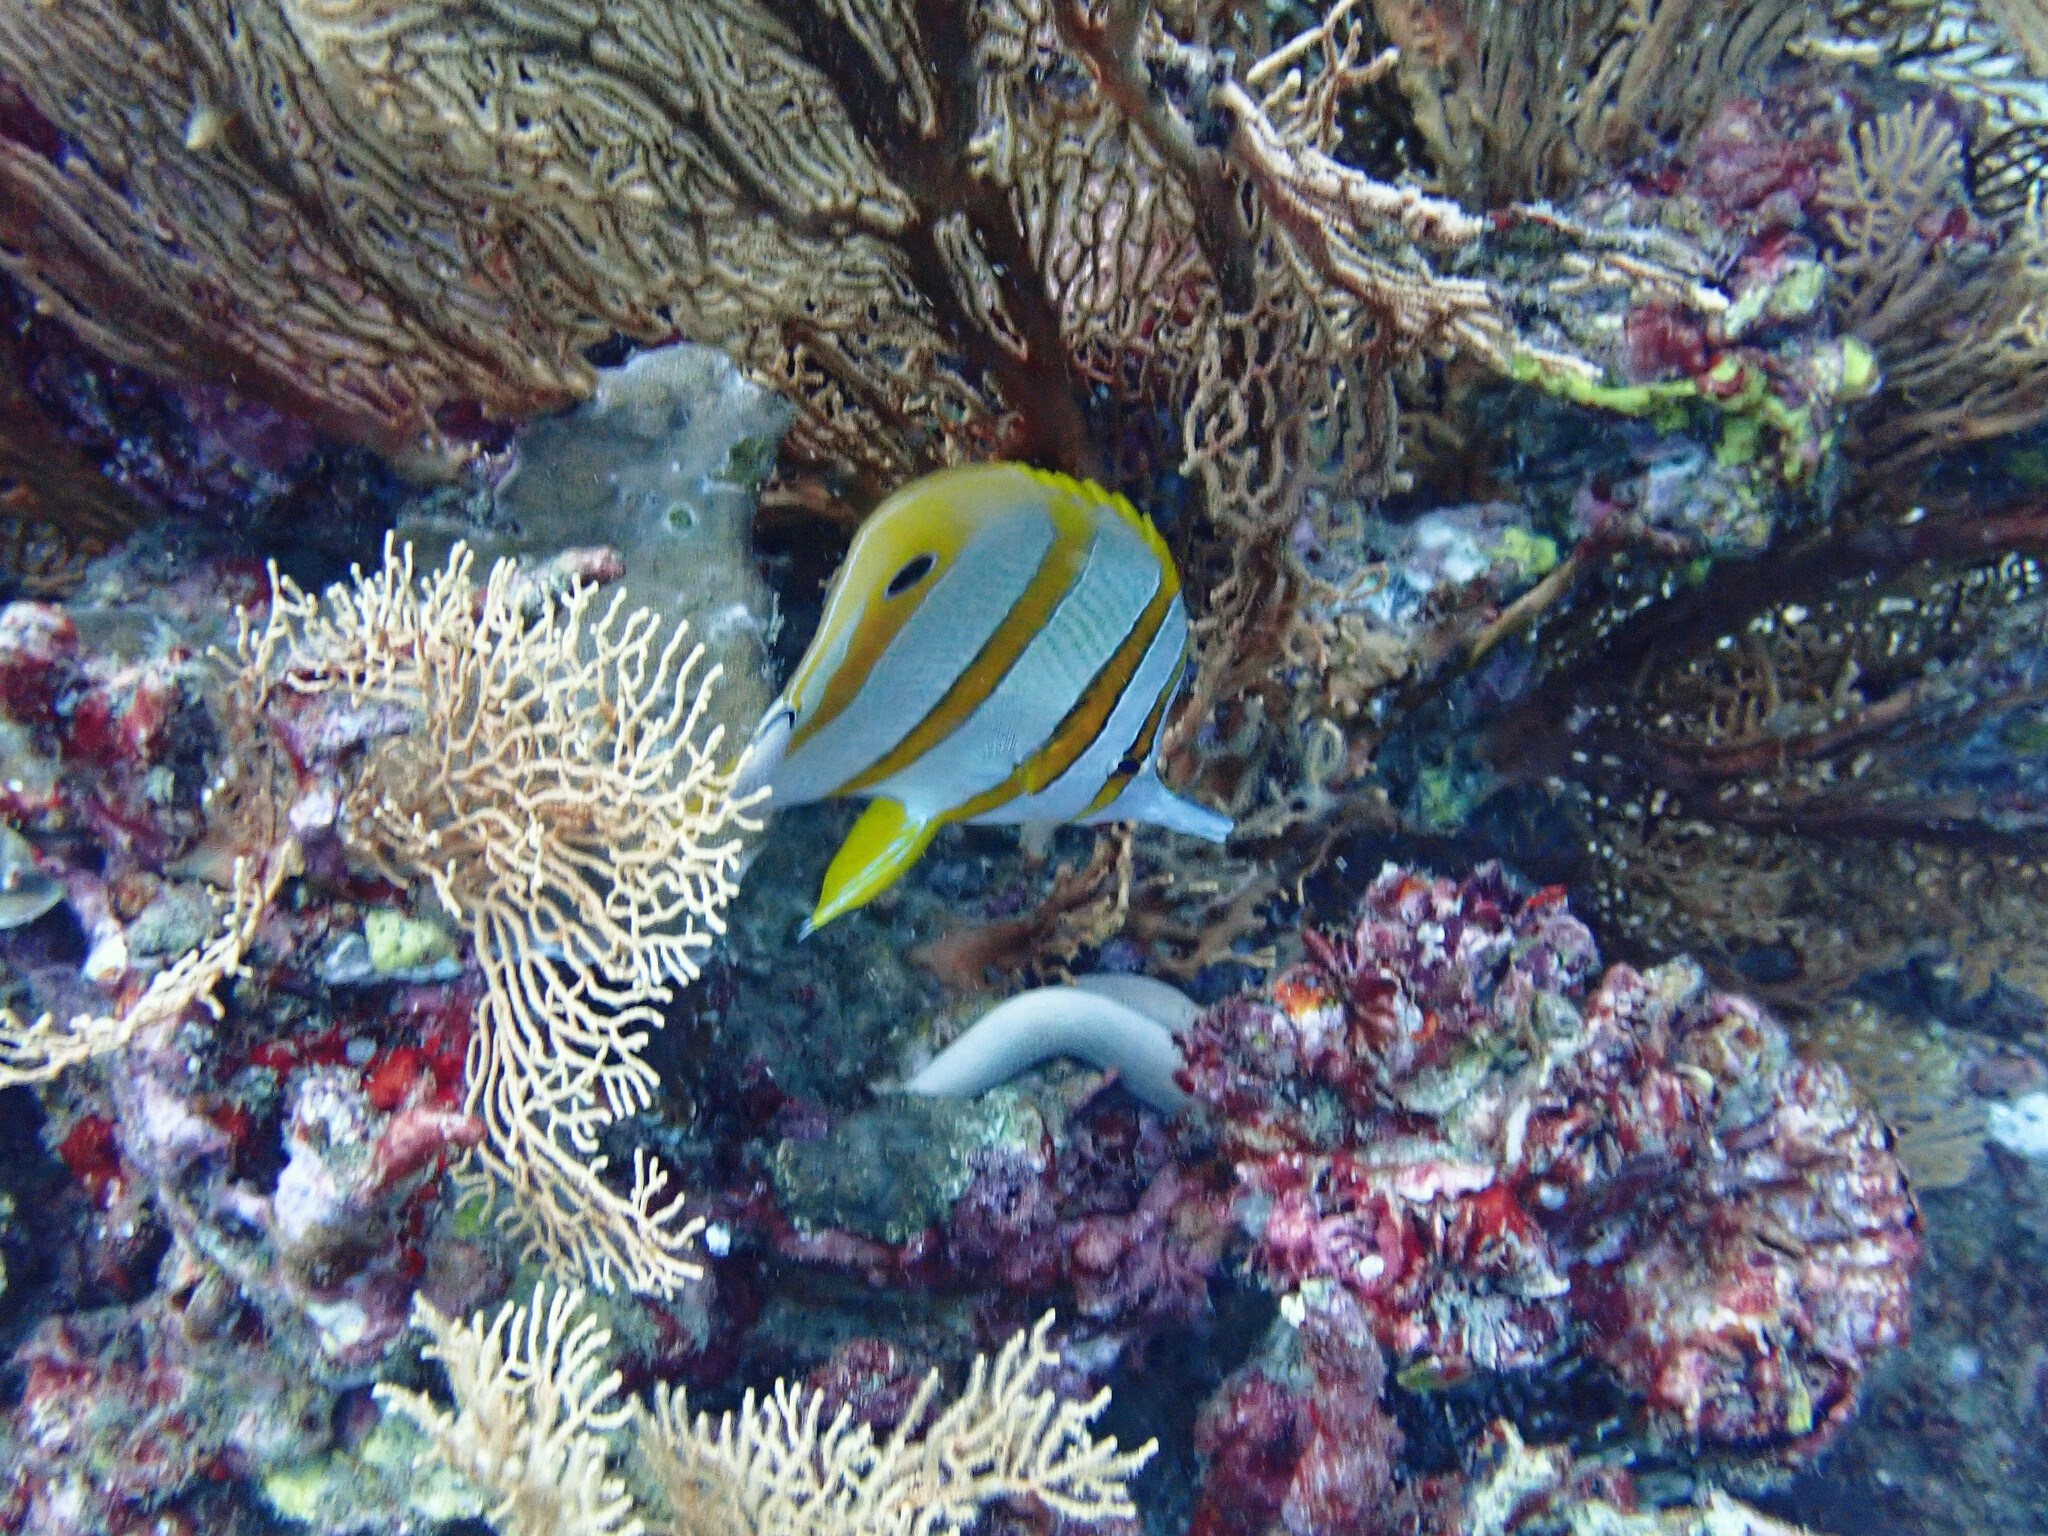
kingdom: Animalia
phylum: Chordata
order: Perciformes
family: Chaetodontidae
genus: Chelmon
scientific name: Chelmon rostratus
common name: Beaked butterflyfish
